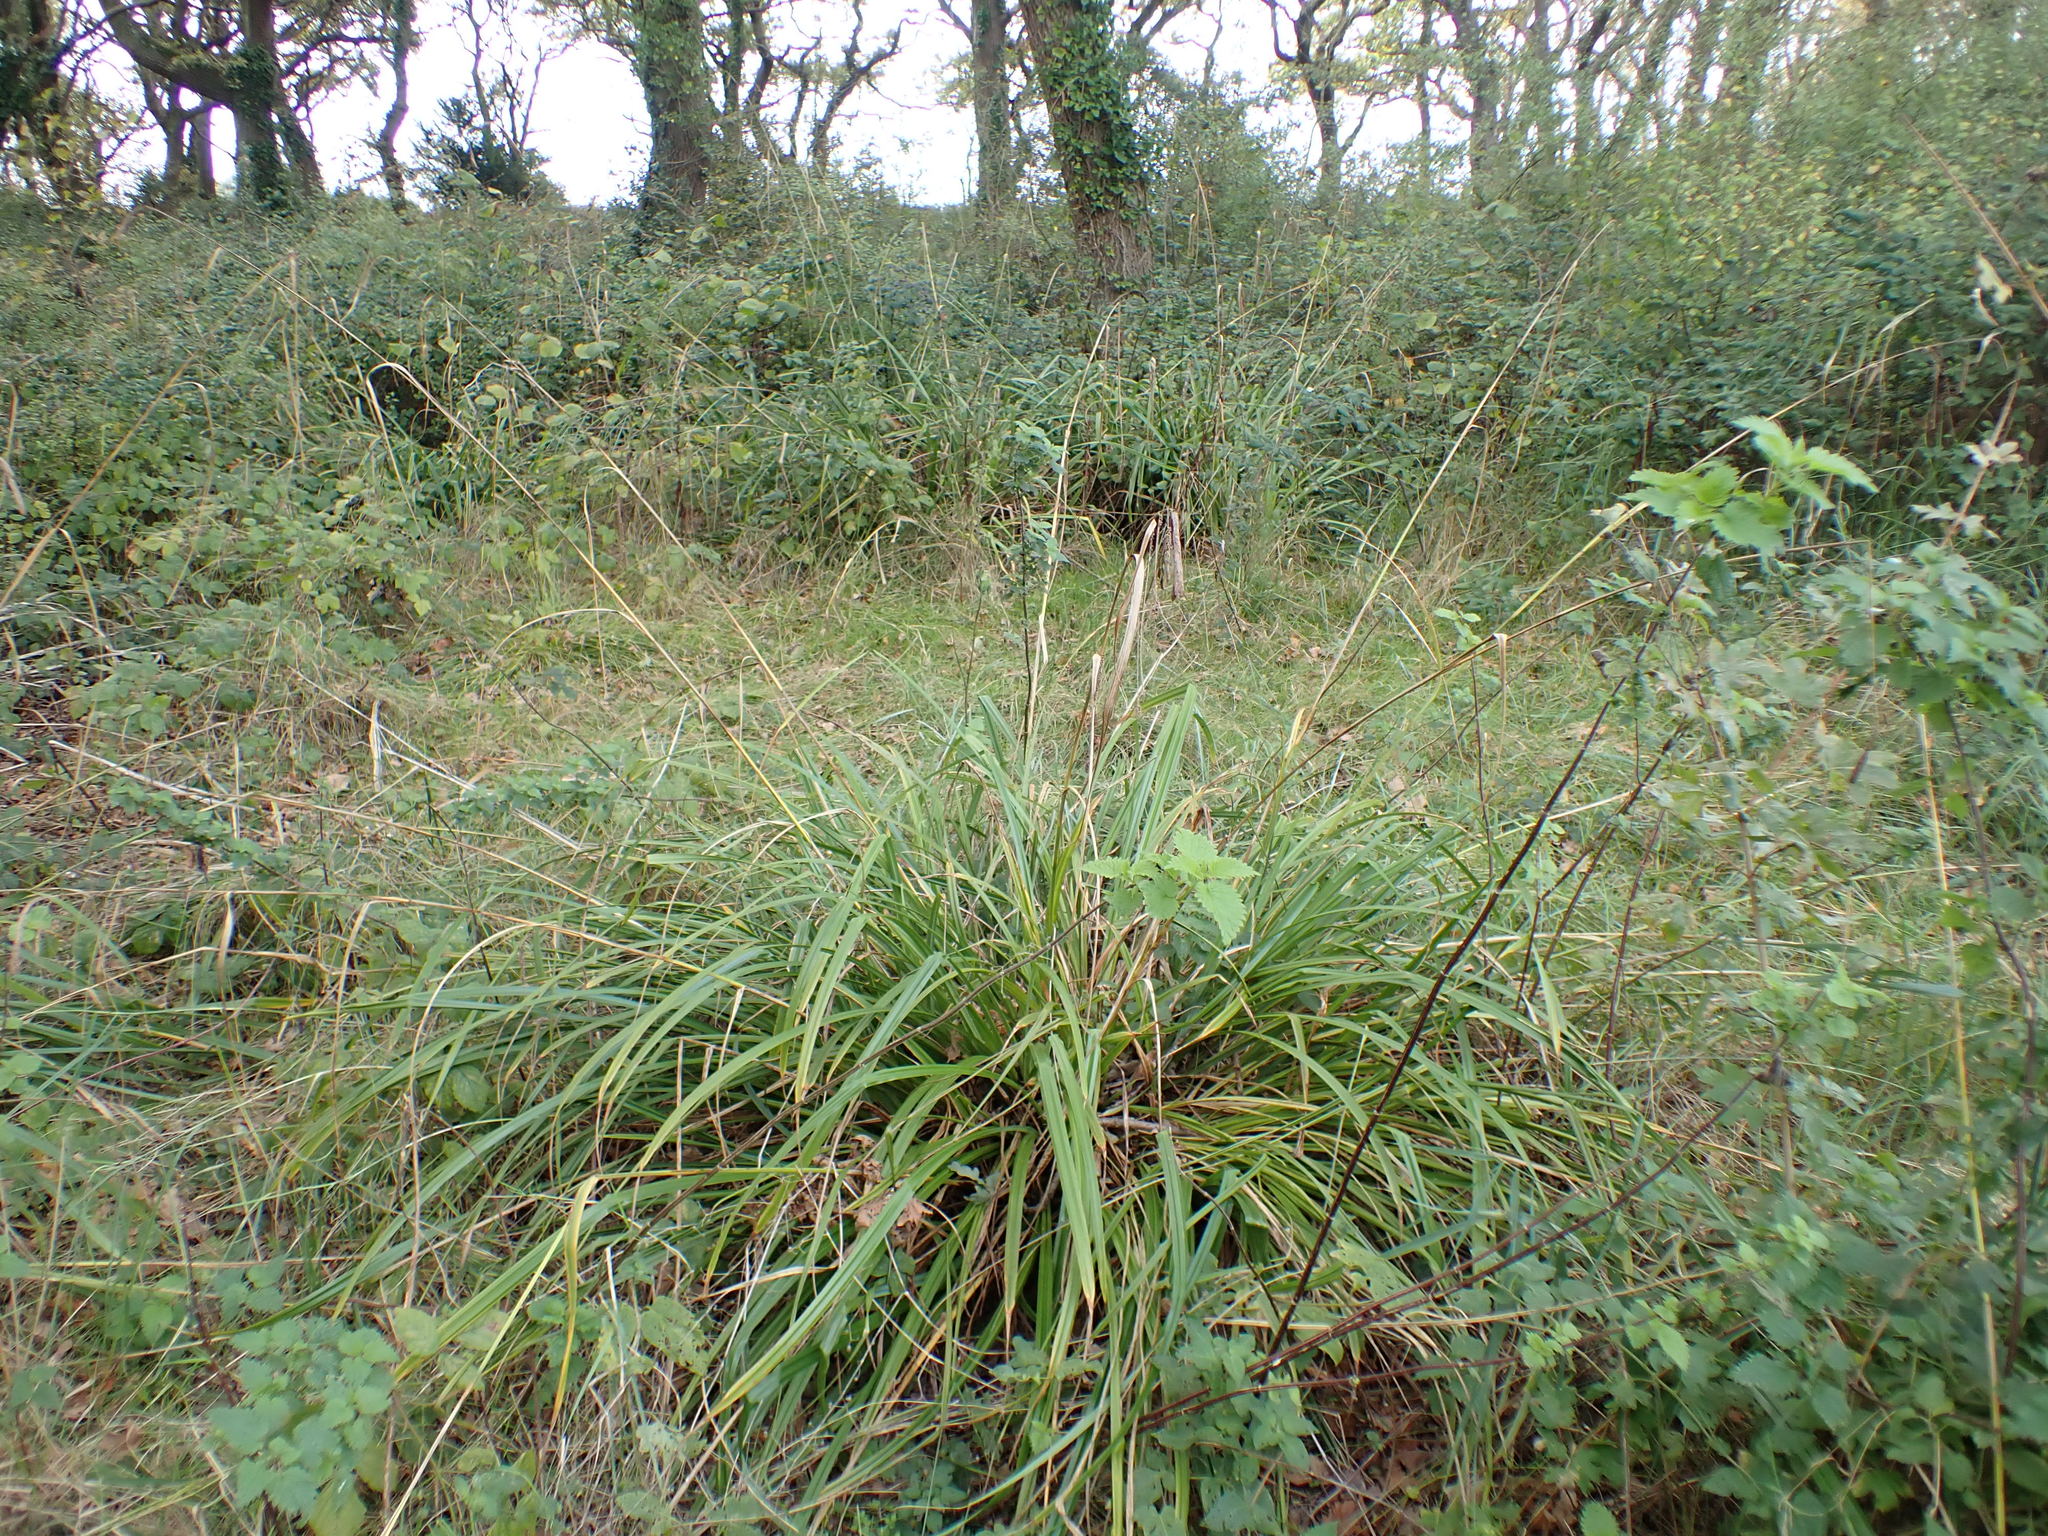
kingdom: Plantae
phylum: Tracheophyta
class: Liliopsida
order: Poales
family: Cyperaceae
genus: Carex
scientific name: Carex pendula
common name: Pendulous sedge
